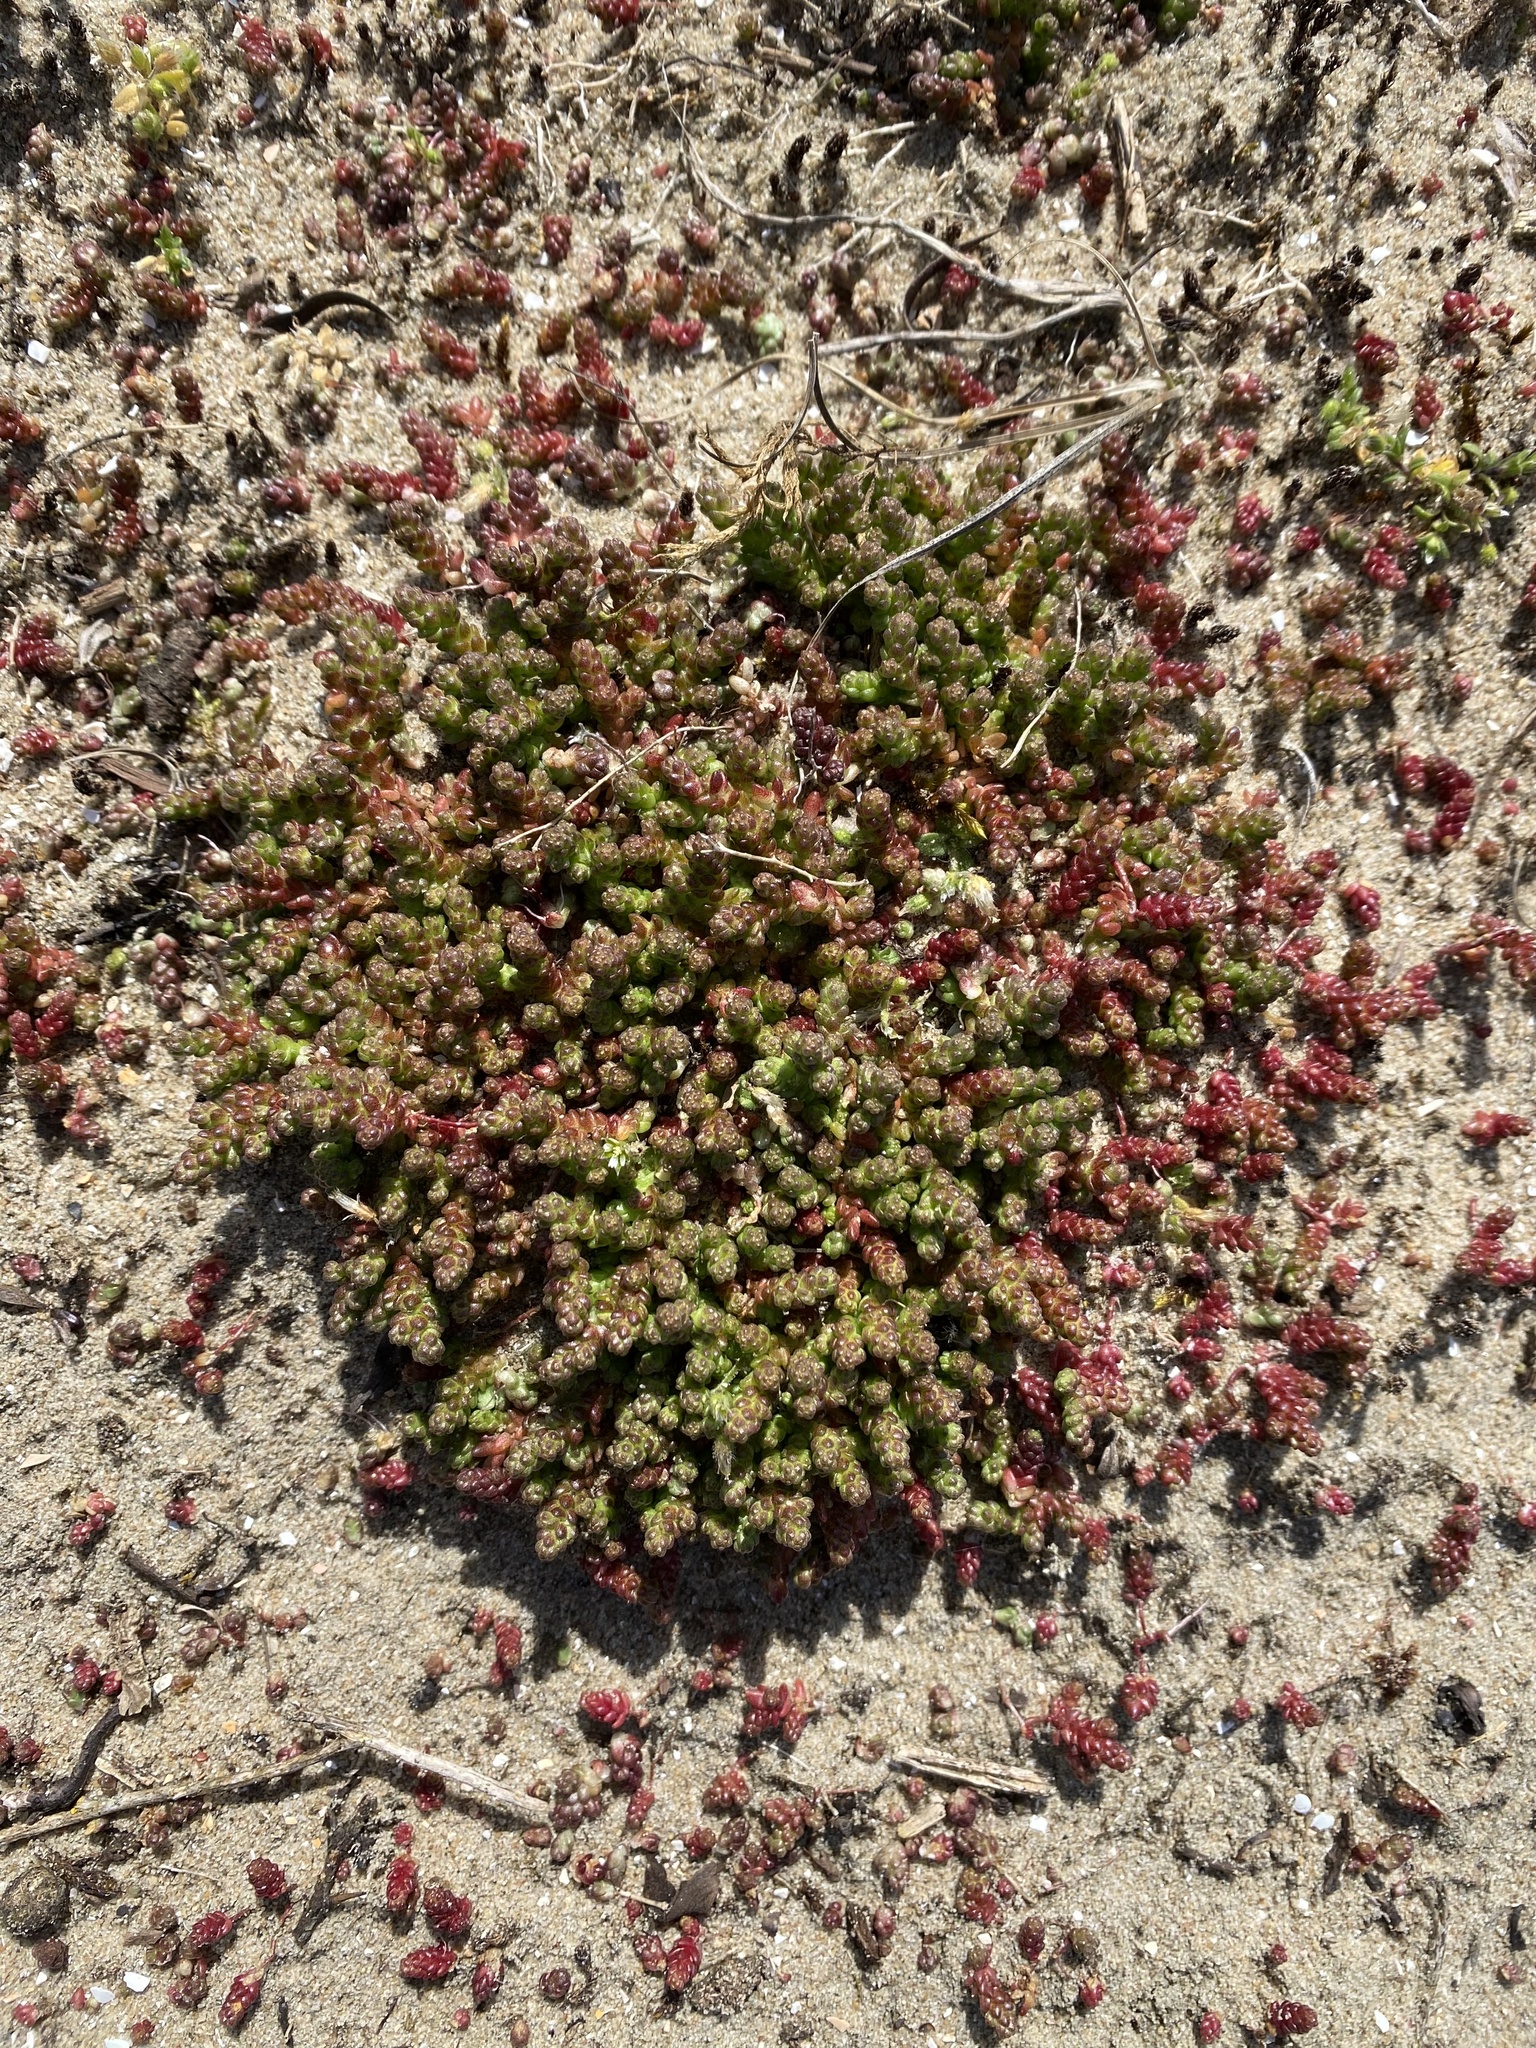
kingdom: Plantae
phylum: Tracheophyta
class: Magnoliopsida
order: Saxifragales
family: Crassulaceae
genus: Sedum
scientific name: Sedum acre
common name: Biting stonecrop
